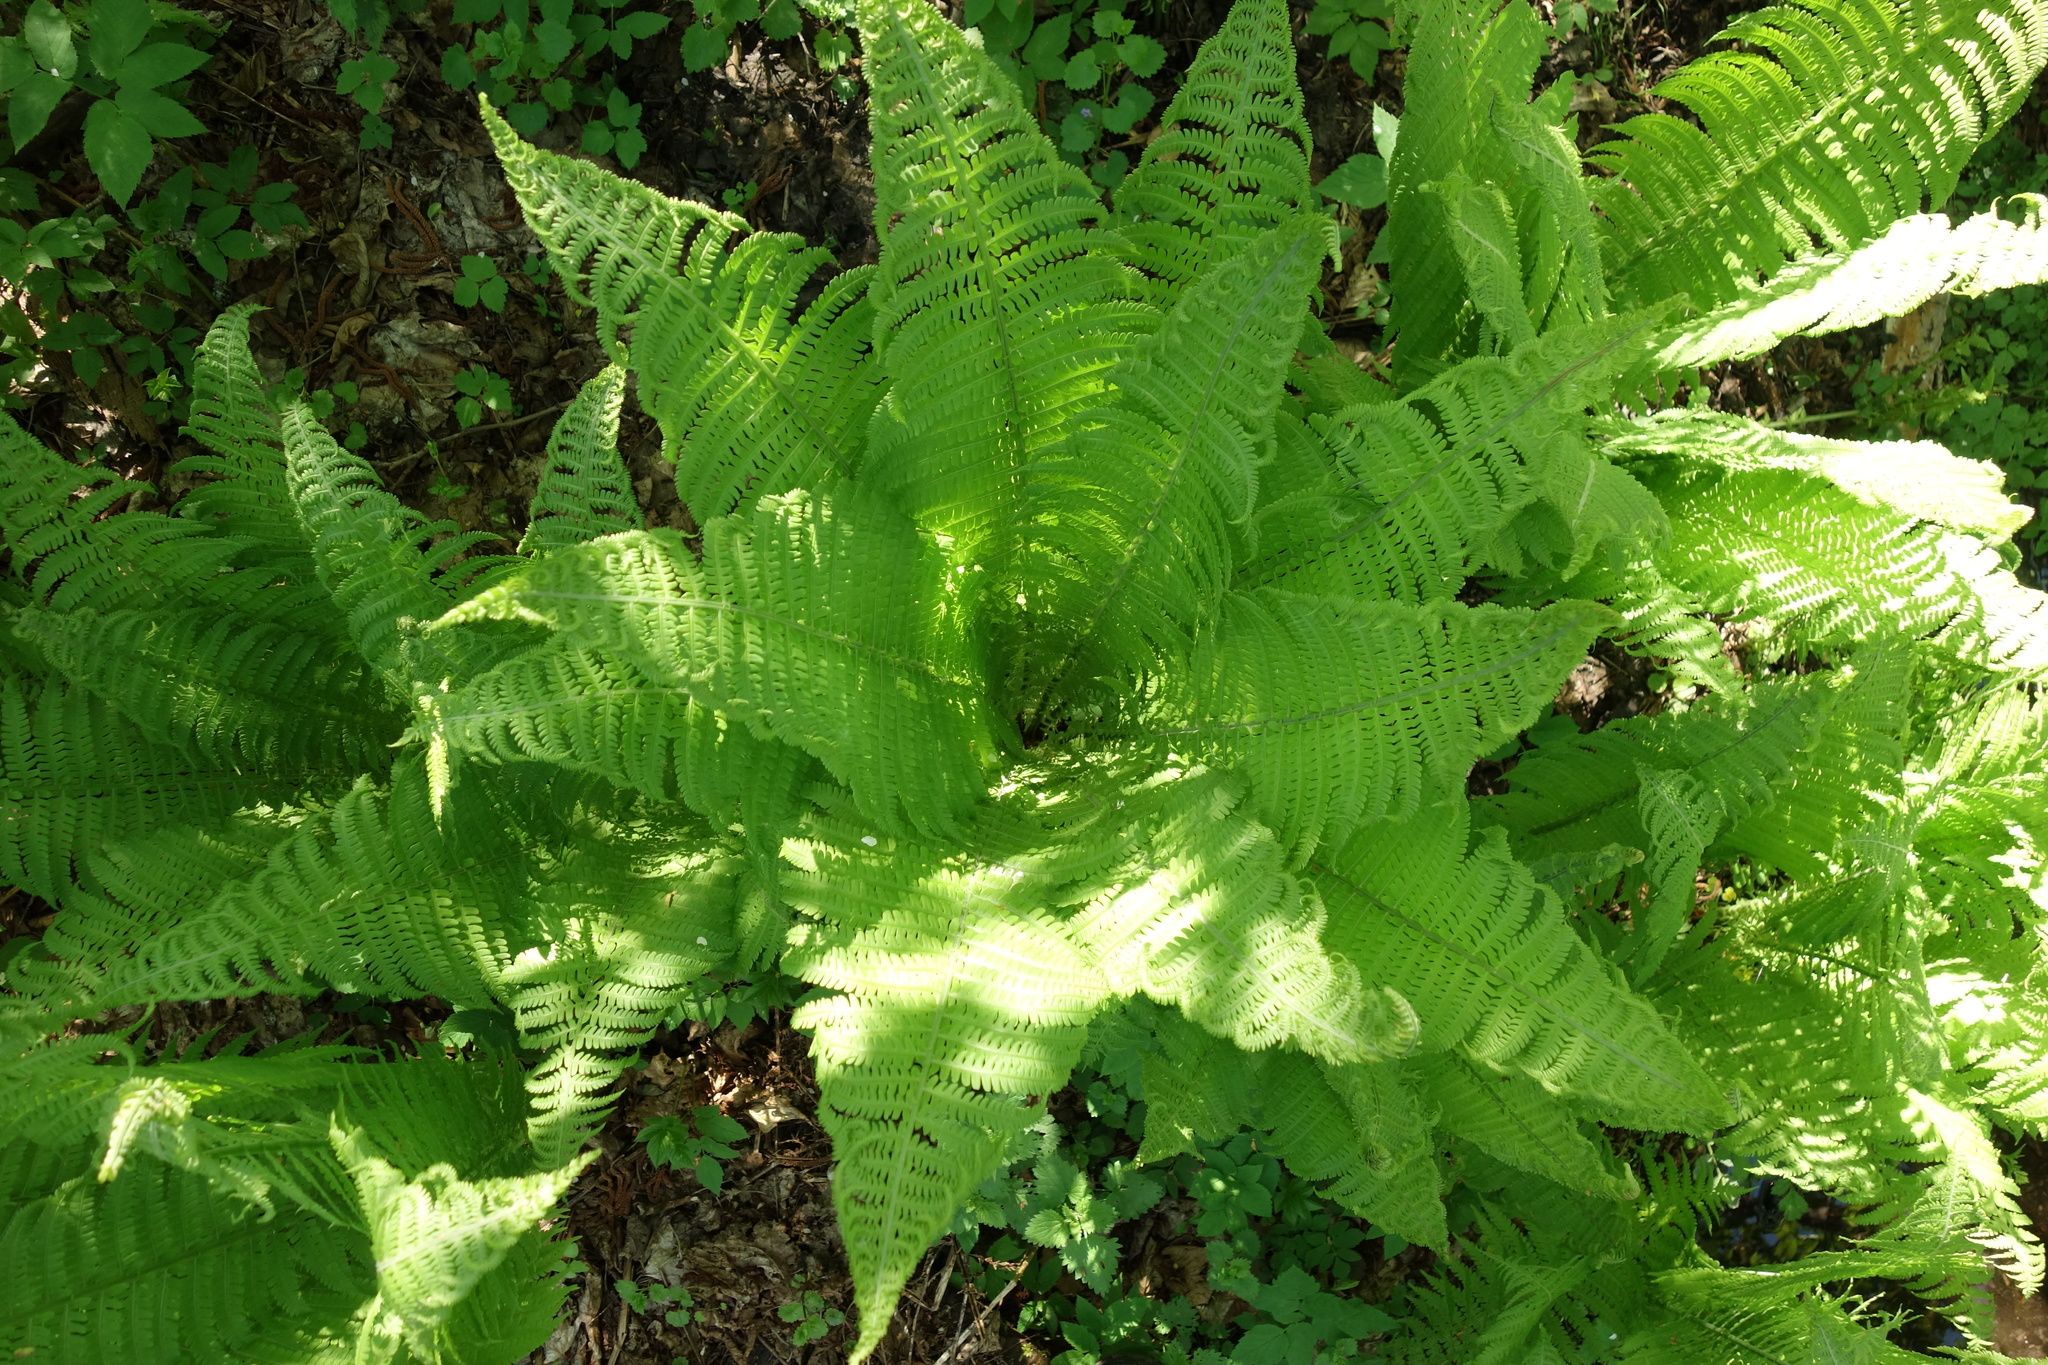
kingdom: Plantae
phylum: Tracheophyta
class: Polypodiopsida
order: Polypodiales
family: Onocleaceae
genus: Matteuccia
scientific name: Matteuccia struthiopteris
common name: Ostrich fern
